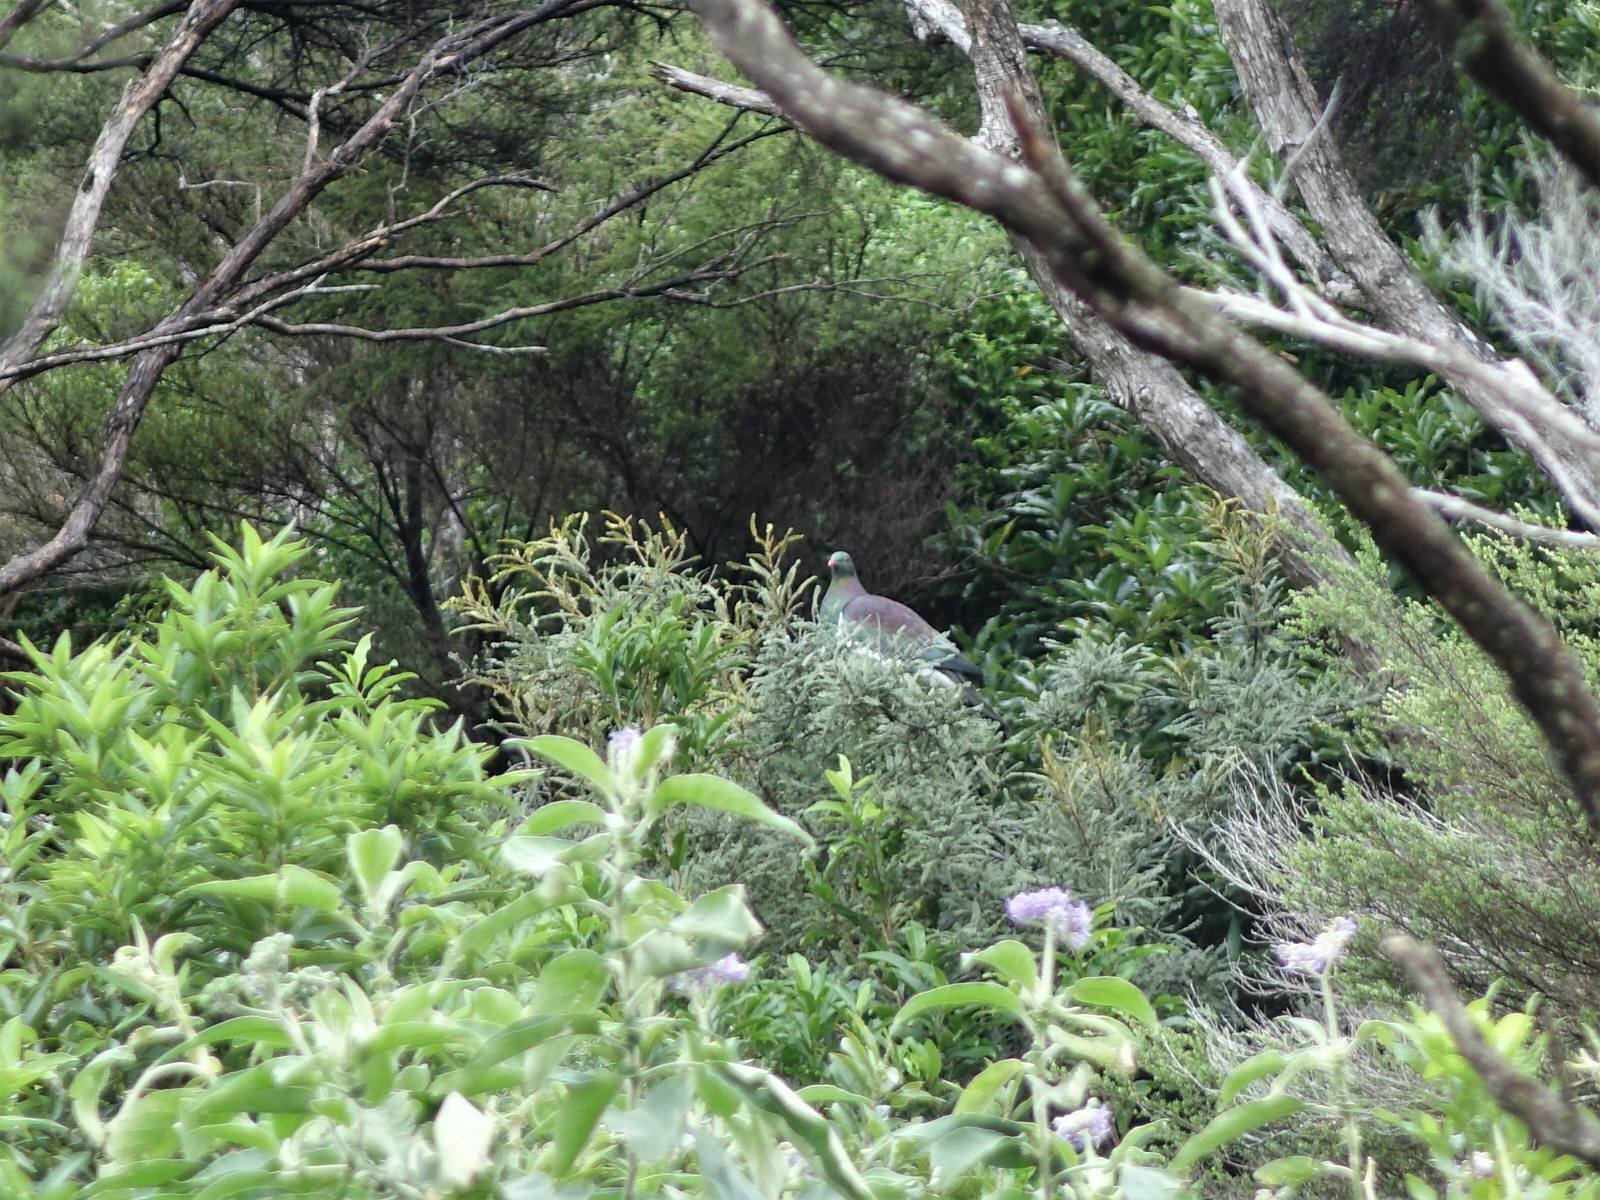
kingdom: Animalia
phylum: Chordata
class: Aves
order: Columbiformes
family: Columbidae
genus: Hemiphaga
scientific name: Hemiphaga novaeseelandiae
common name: New zealand pigeon
